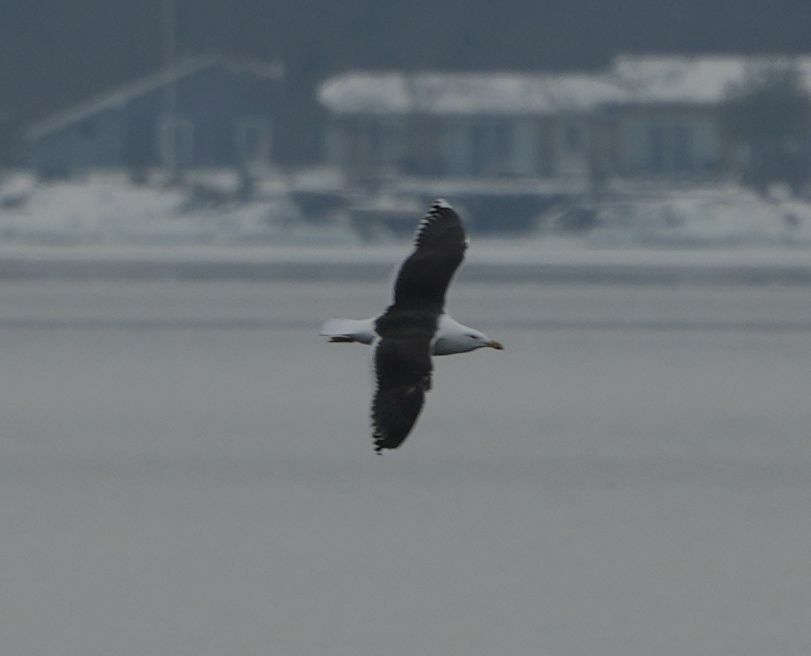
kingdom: Animalia
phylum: Chordata
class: Aves
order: Charadriiformes
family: Laridae
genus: Larus
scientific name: Larus marinus
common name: Great black-backed gull
